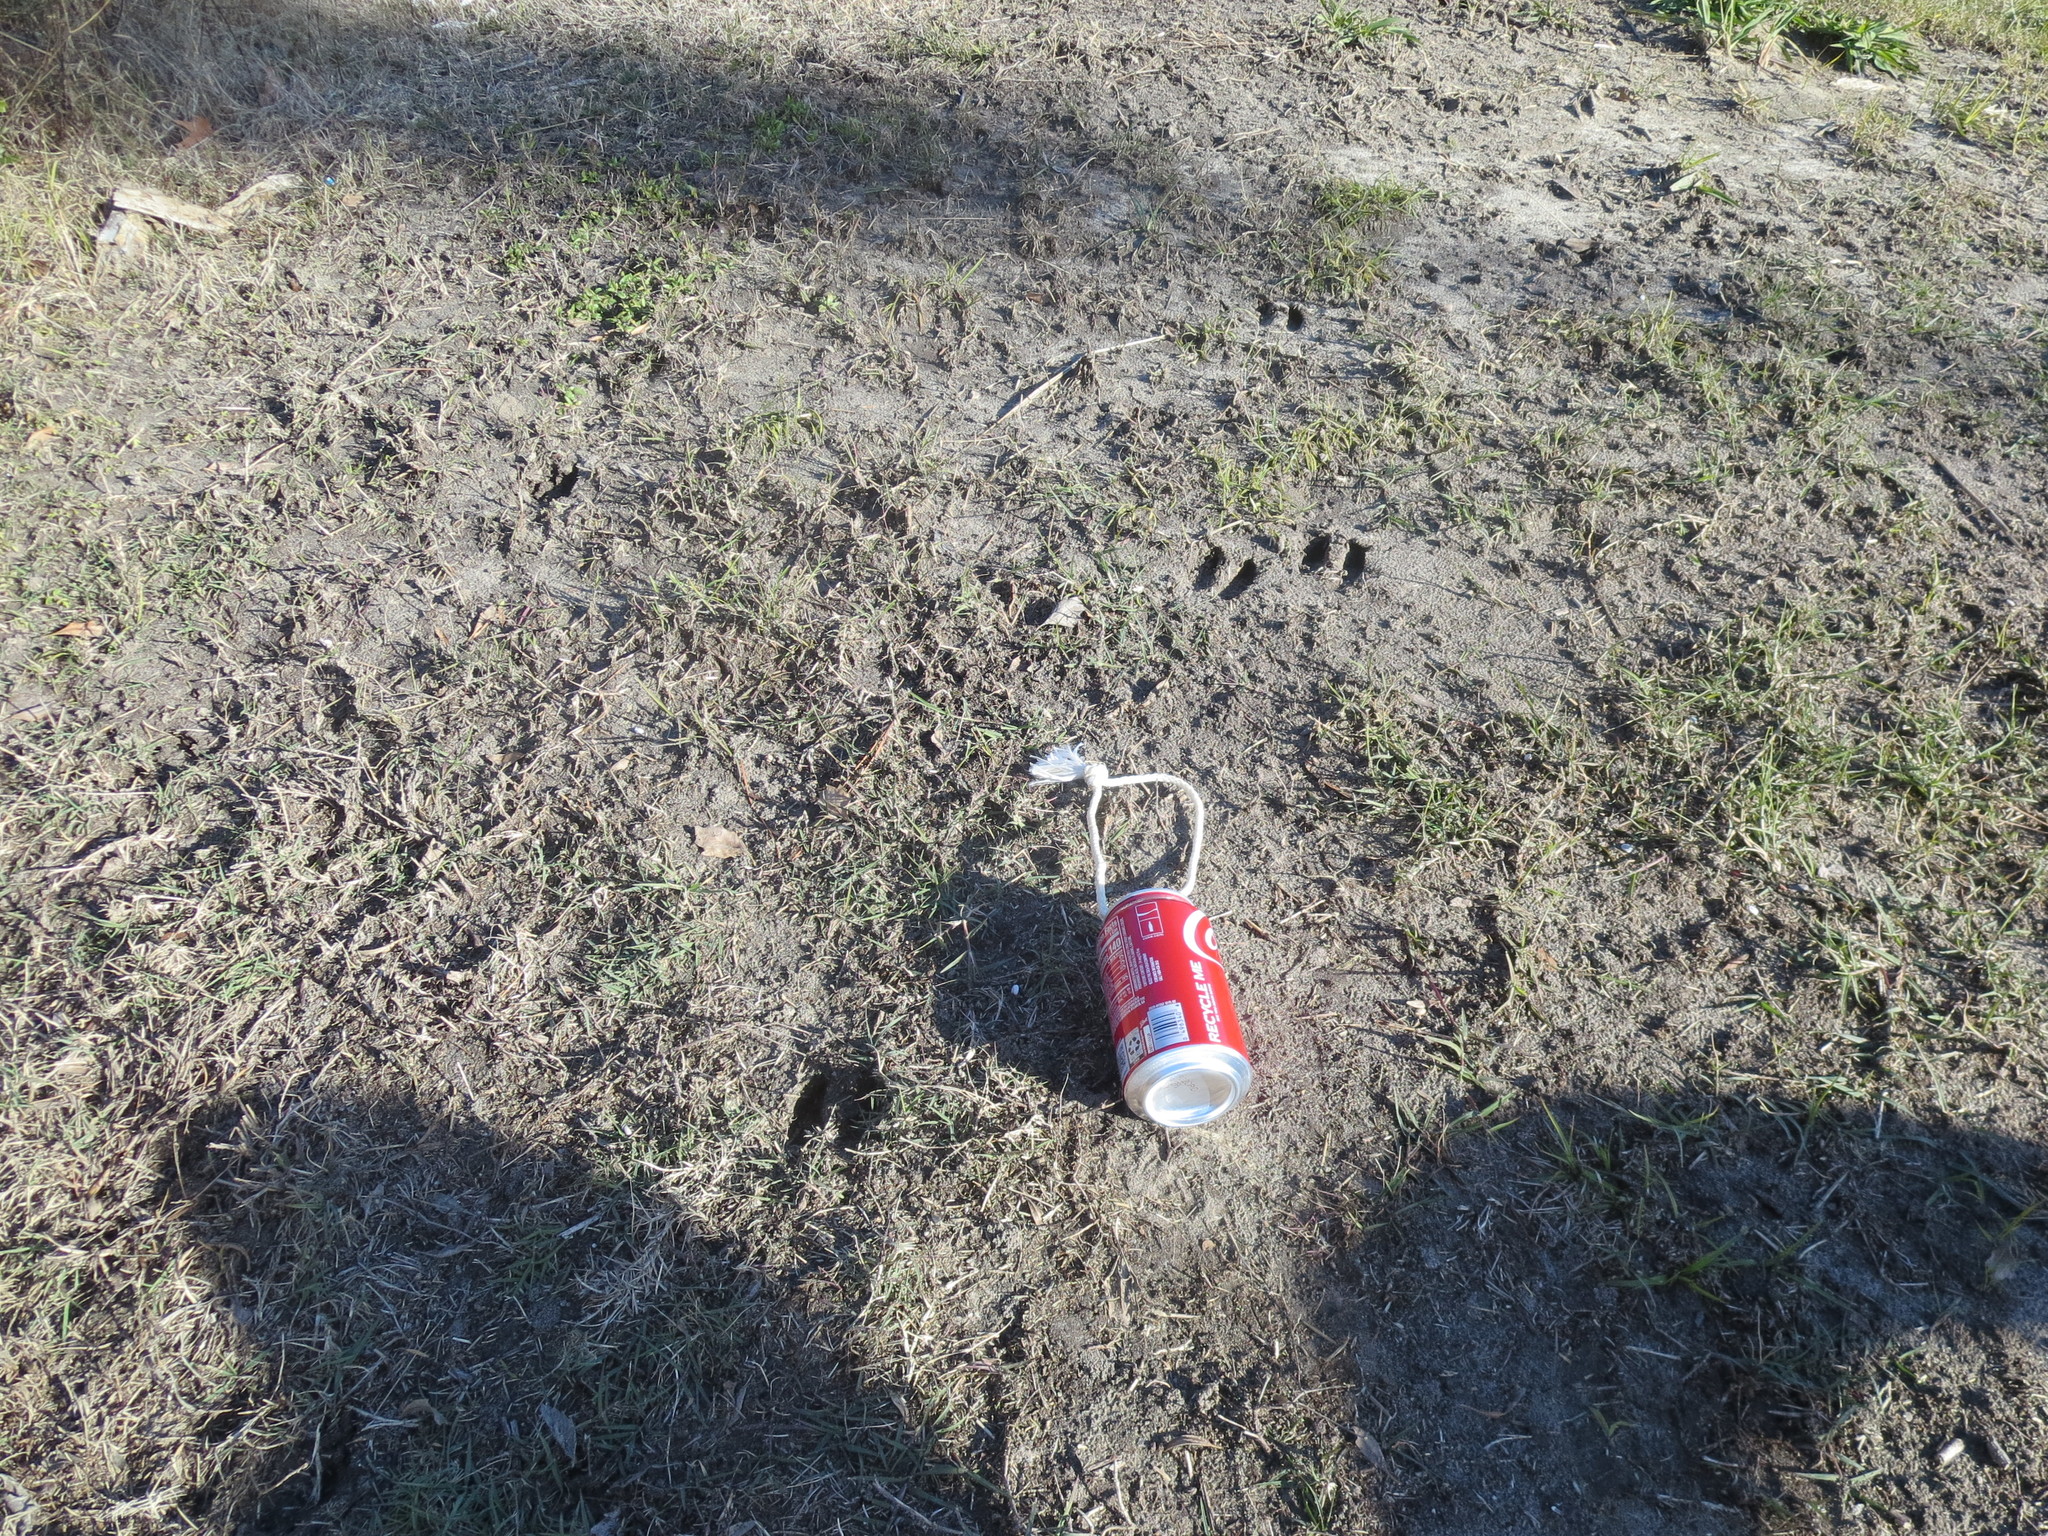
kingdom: Animalia
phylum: Chordata
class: Mammalia
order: Artiodactyla
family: Cervidae
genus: Odocoileus
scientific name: Odocoileus virginianus
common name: White-tailed deer
